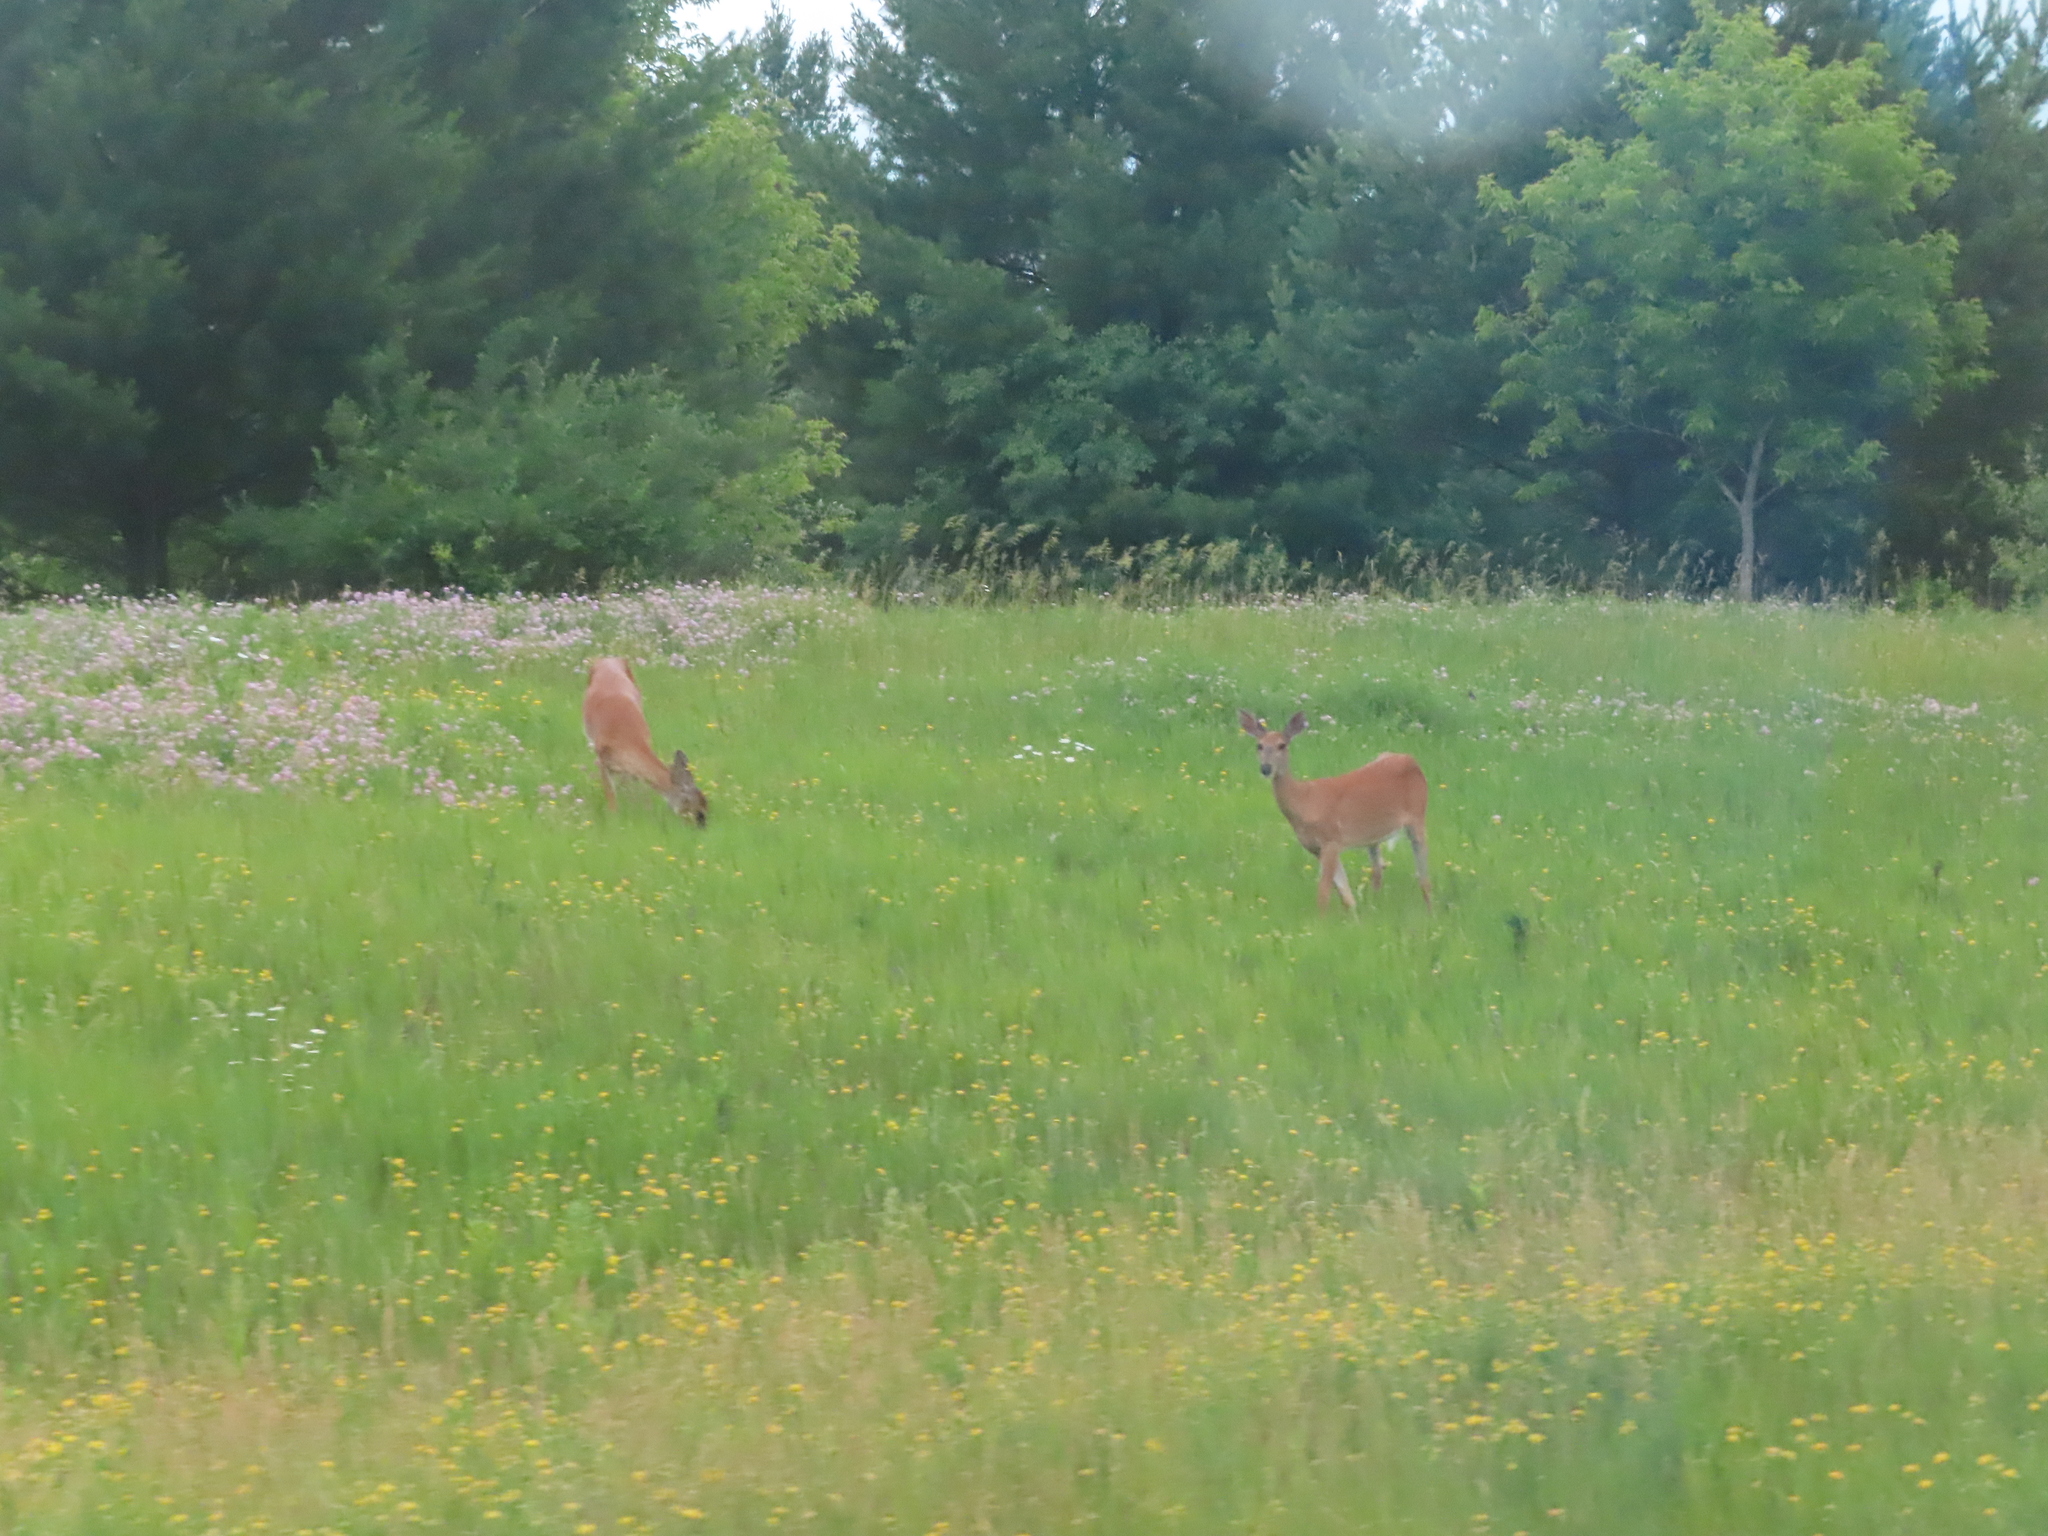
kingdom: Animalia
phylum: Chordata
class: Mammalia
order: Artiodactyla
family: Cervidae
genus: Odocoileus
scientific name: Odocoileus virginianus
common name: White-tailed deer
